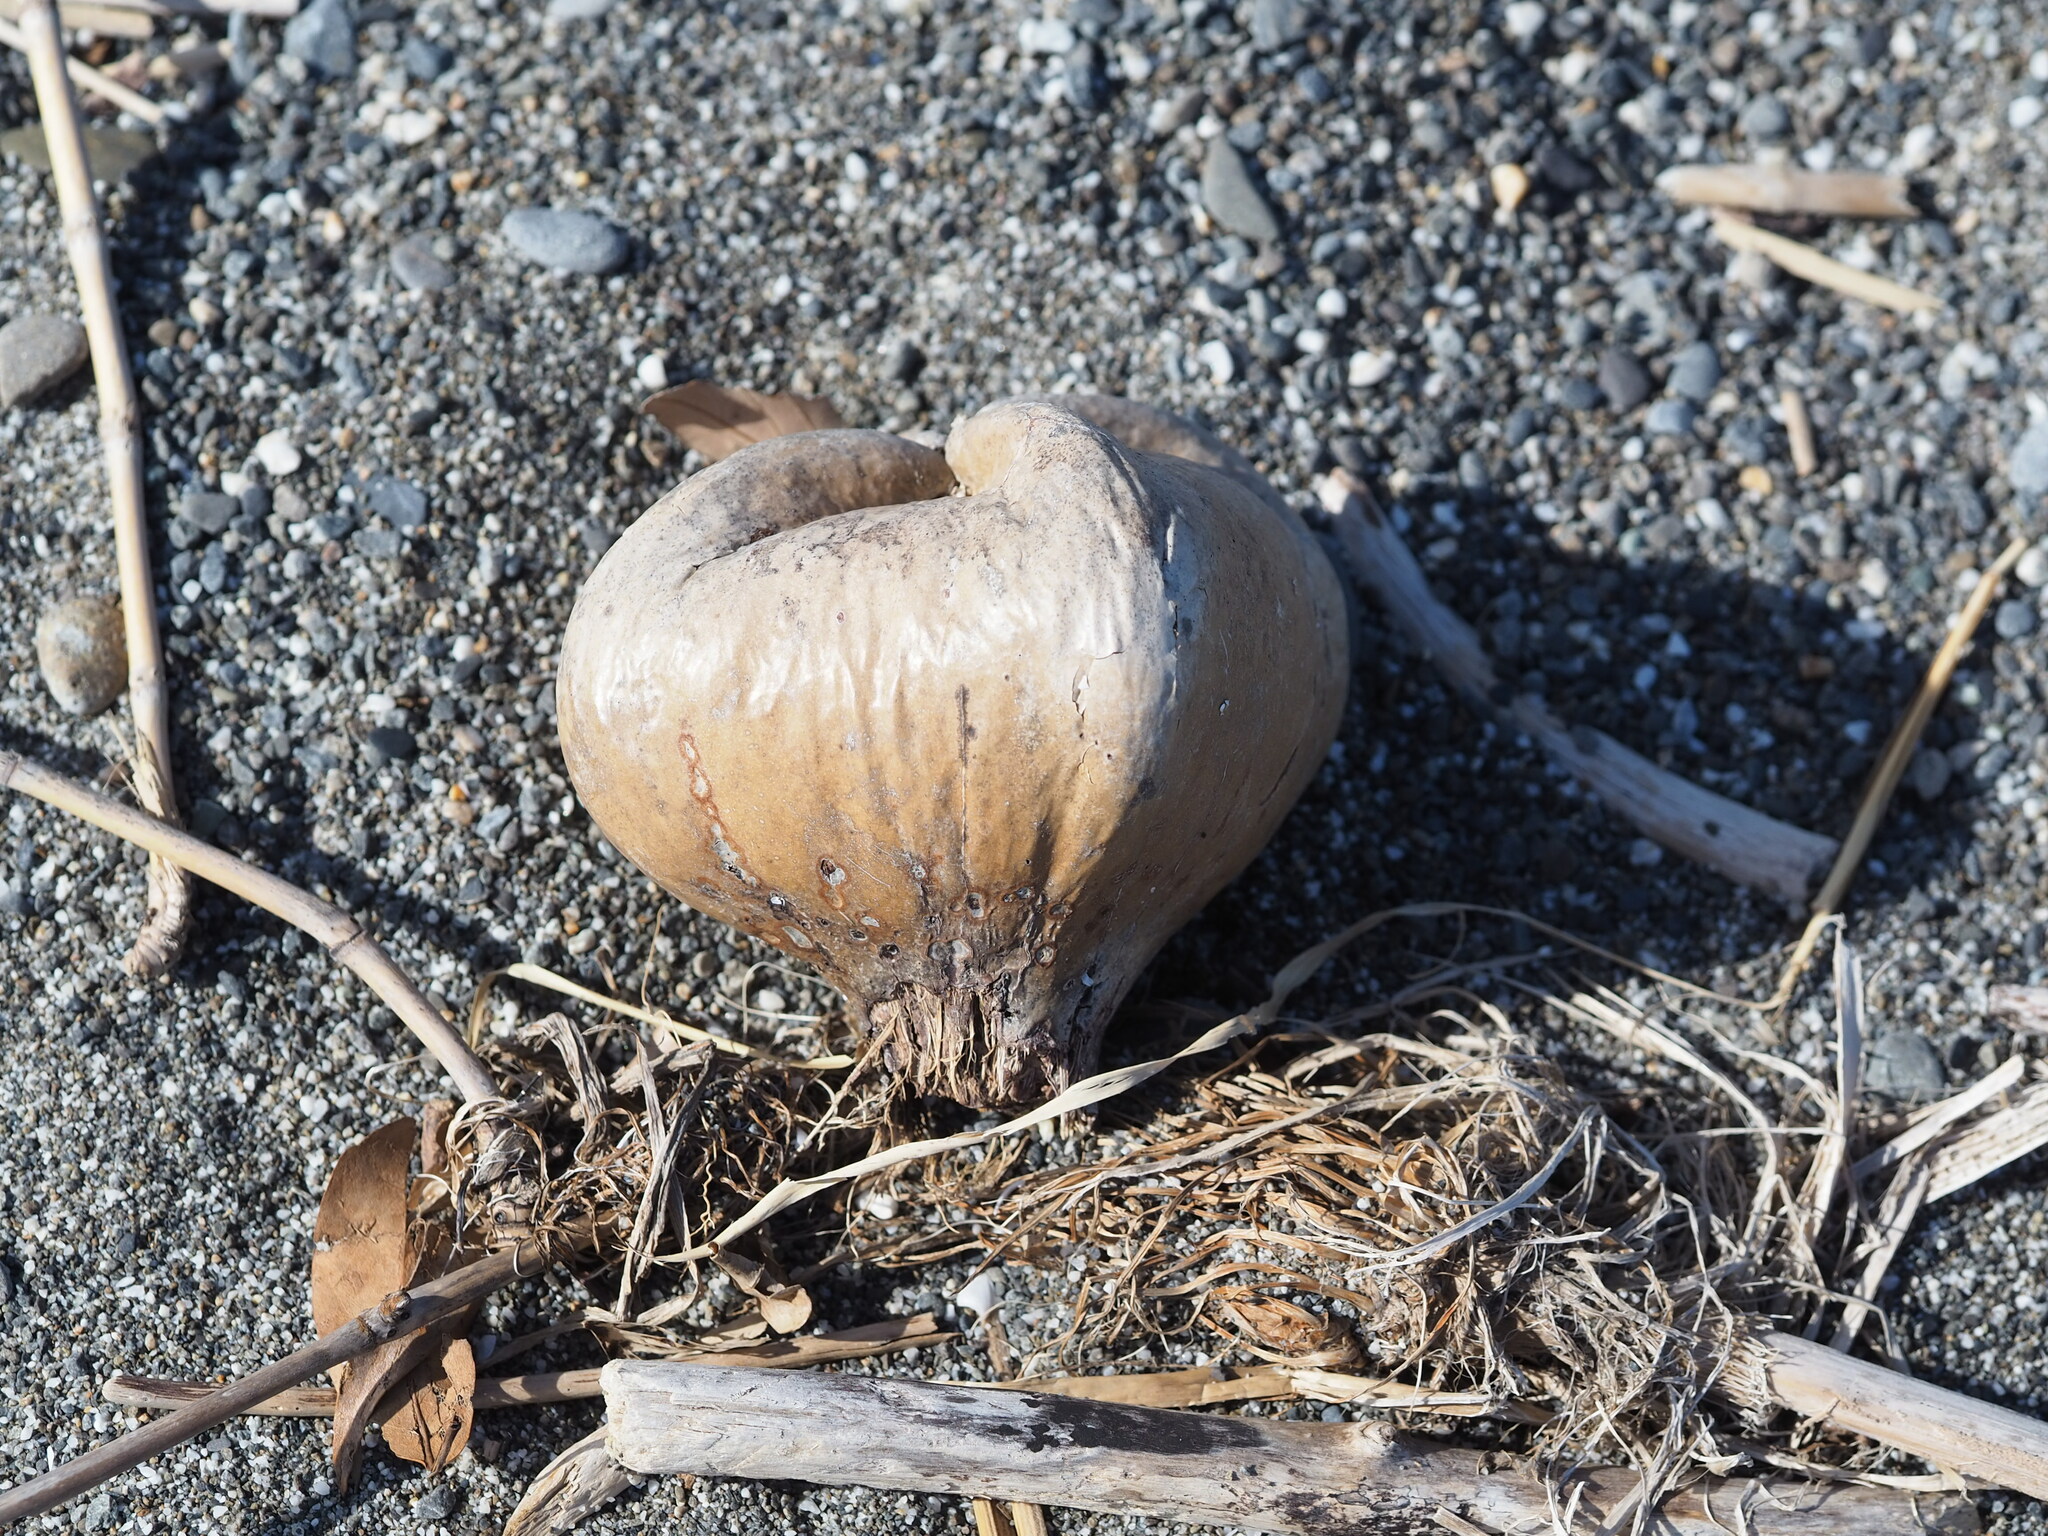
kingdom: Plantae
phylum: Tracheophyta
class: Magnoliopsida
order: Ericales
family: Lecythidaceae
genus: Barringtonia
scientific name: Barringtonia asiatica
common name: Mango-pine
